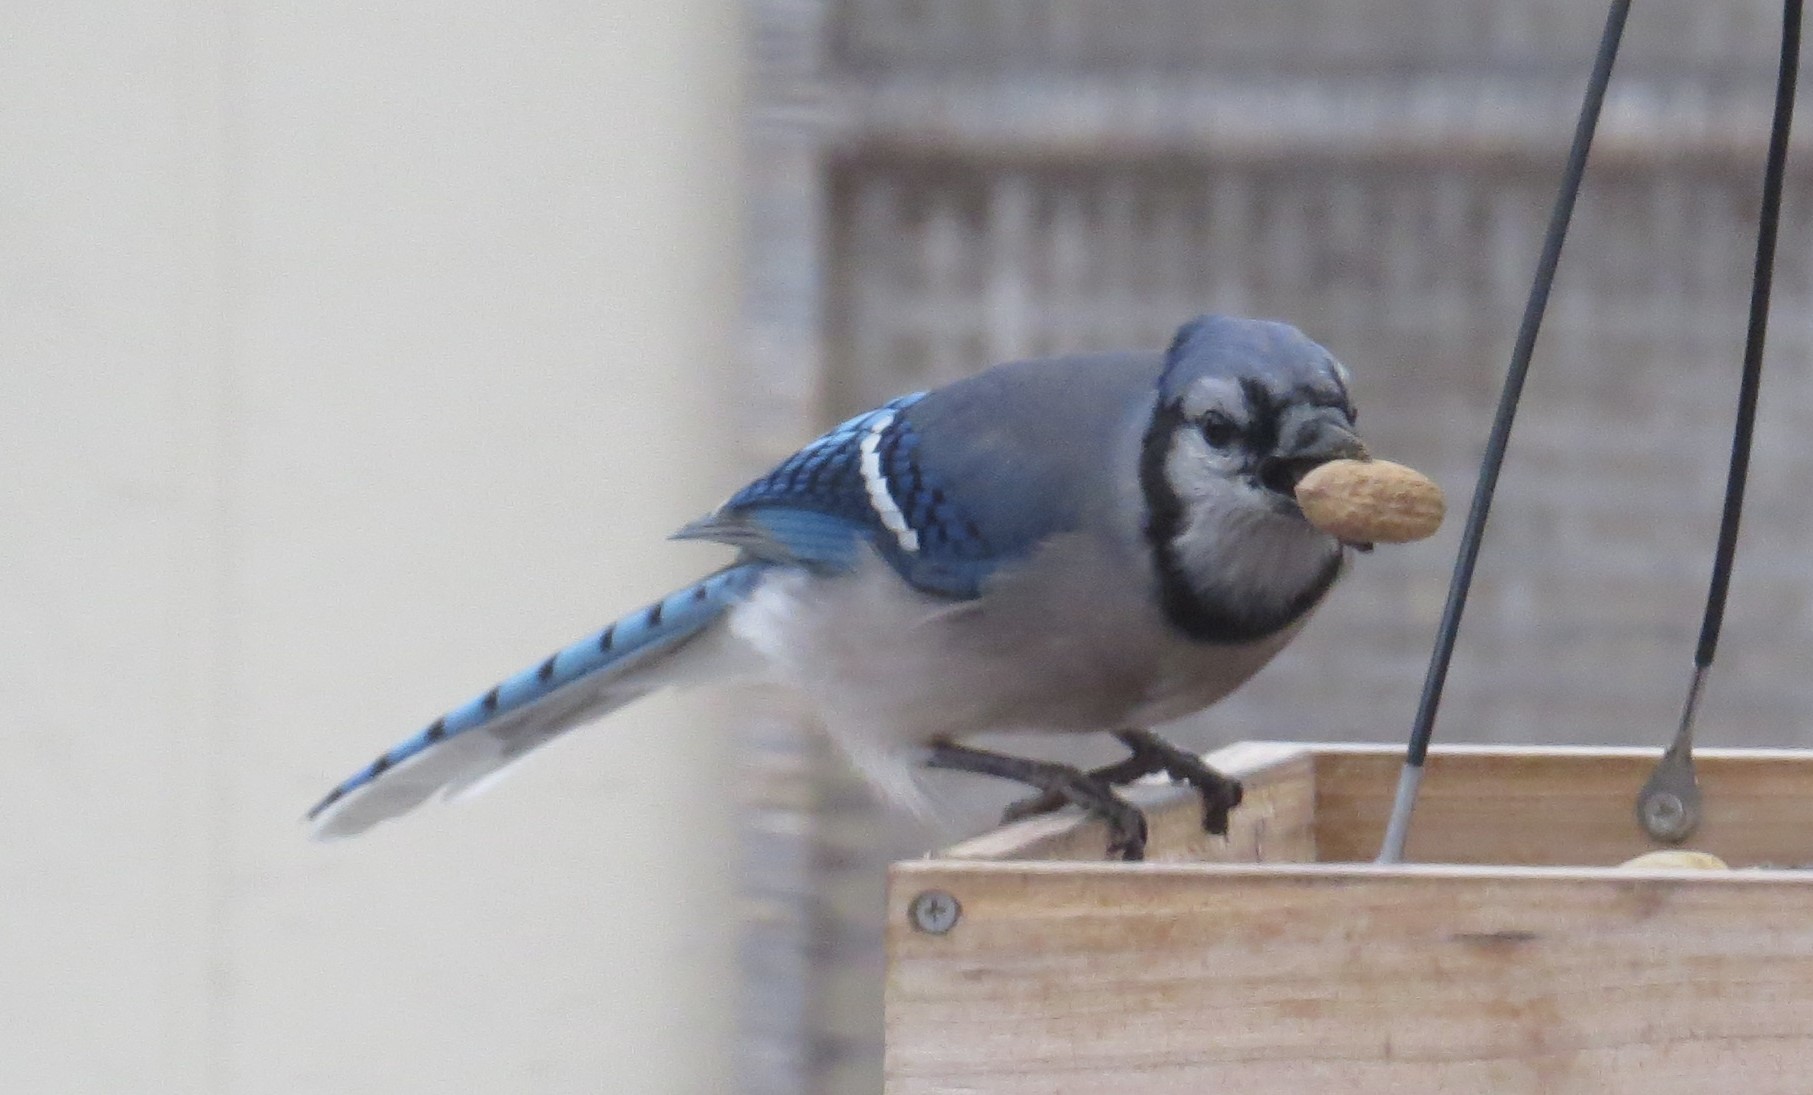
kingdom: Animalia
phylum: Chordata
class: Aves
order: Passeriformes
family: Corvidae
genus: Cyanocitta
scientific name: Cyanocitta cristata
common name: Blue jay
